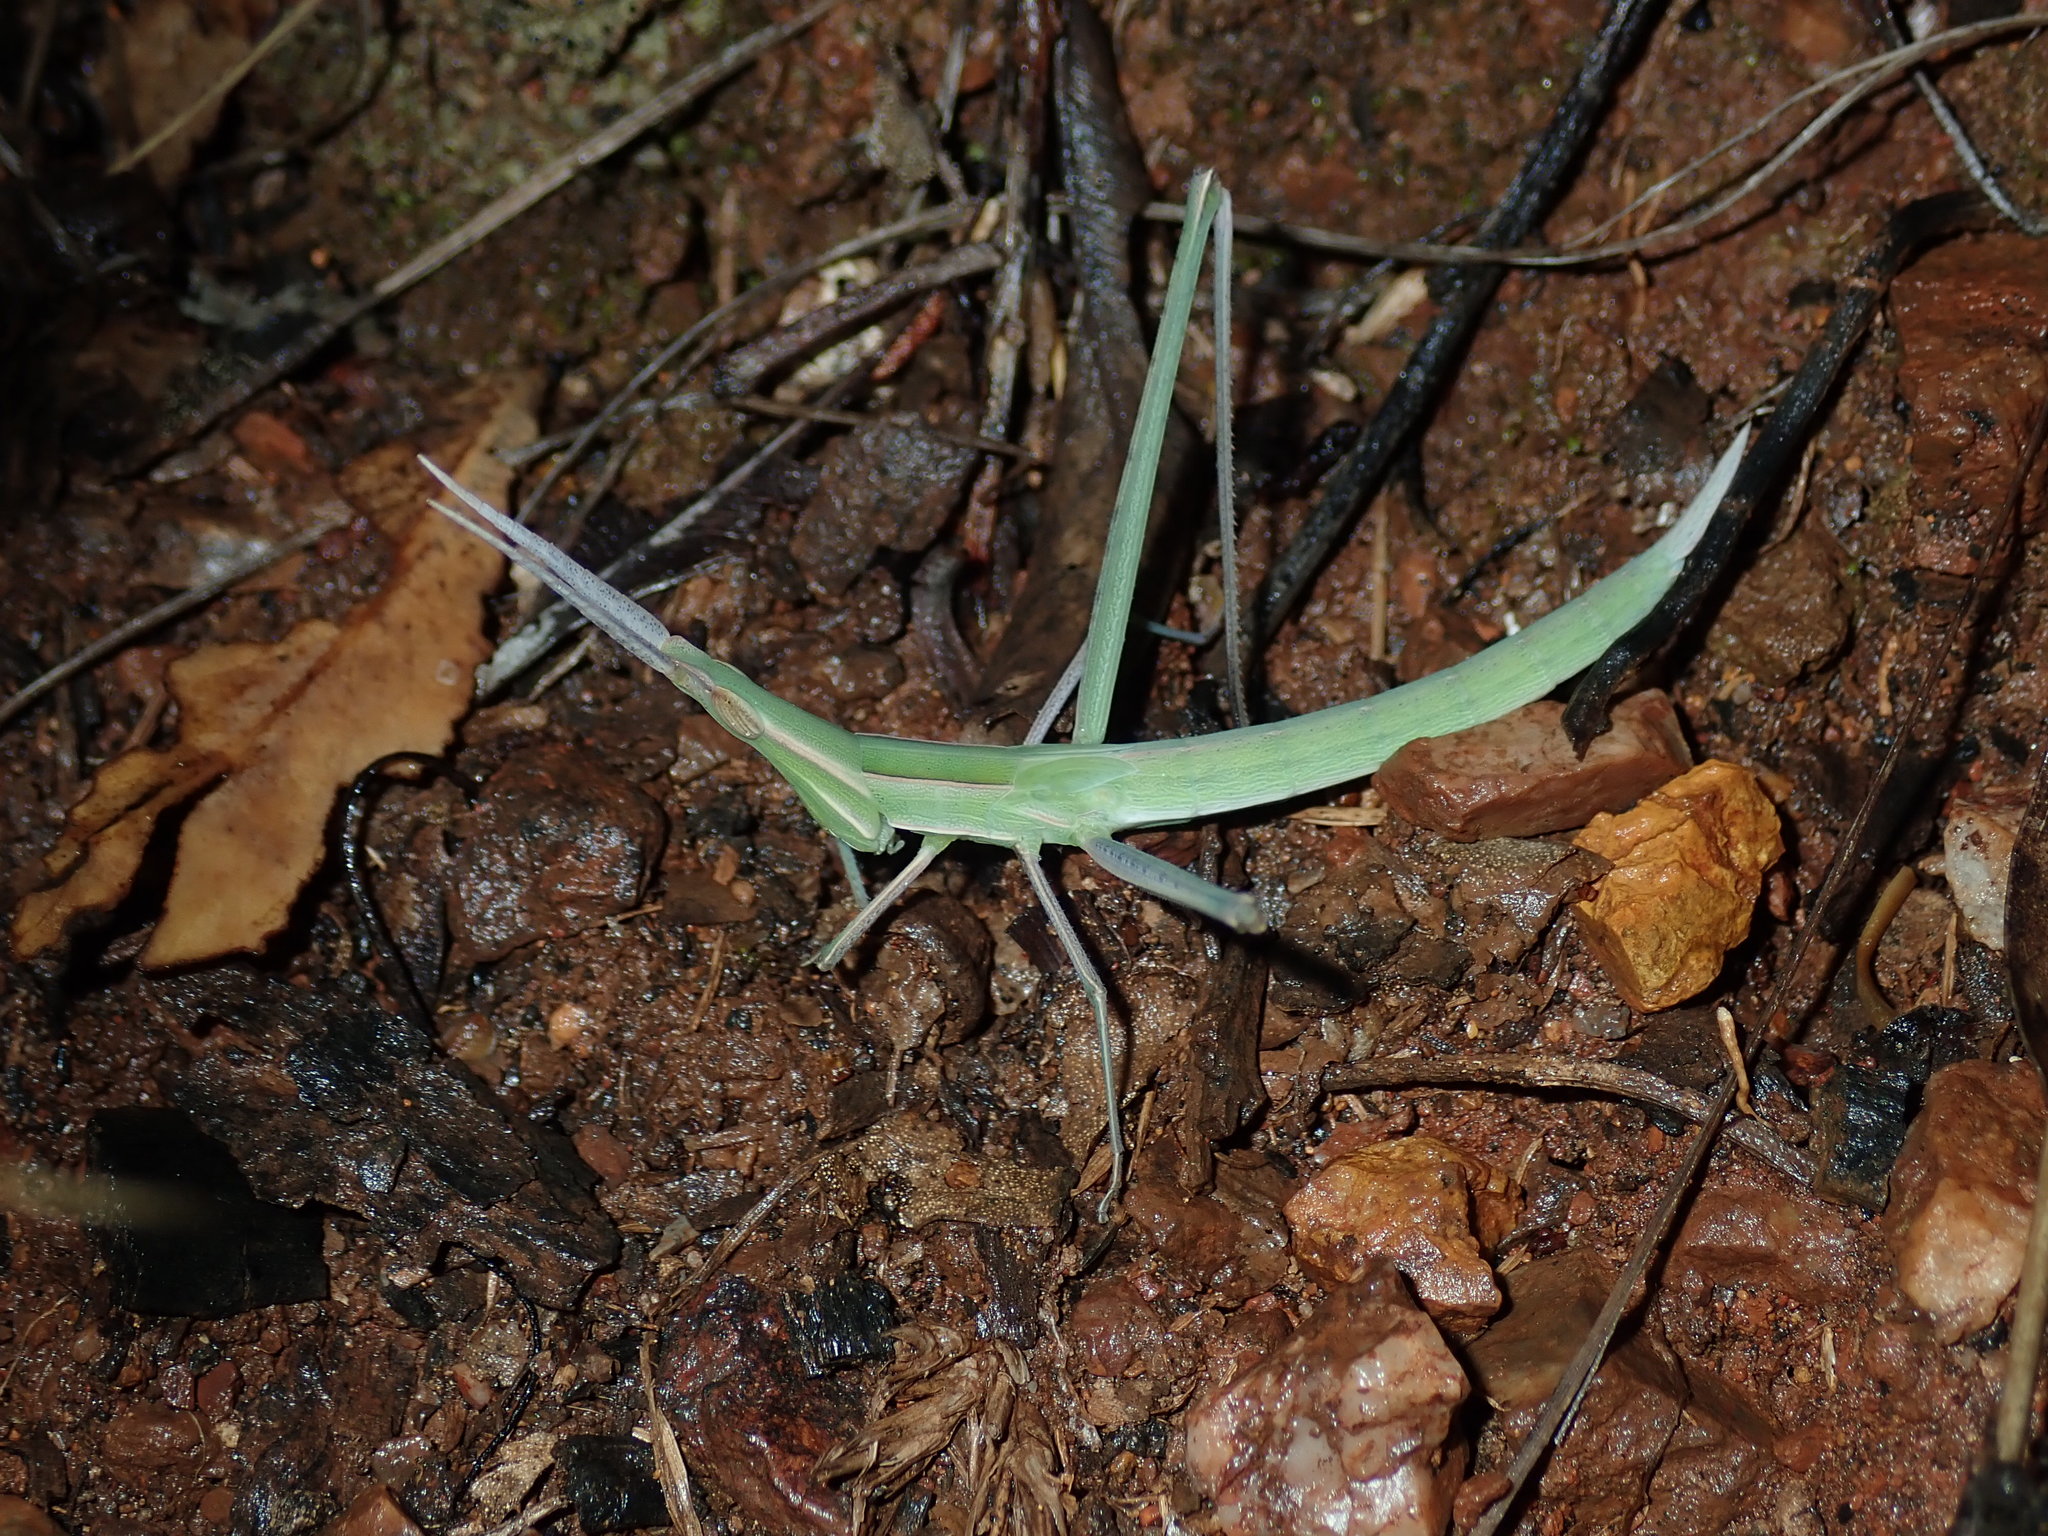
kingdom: Animalia
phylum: Arthropoda
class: Insecta
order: Orthoptera
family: Acrididae
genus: Acrida
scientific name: Acrida conica
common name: Giant green slantface
